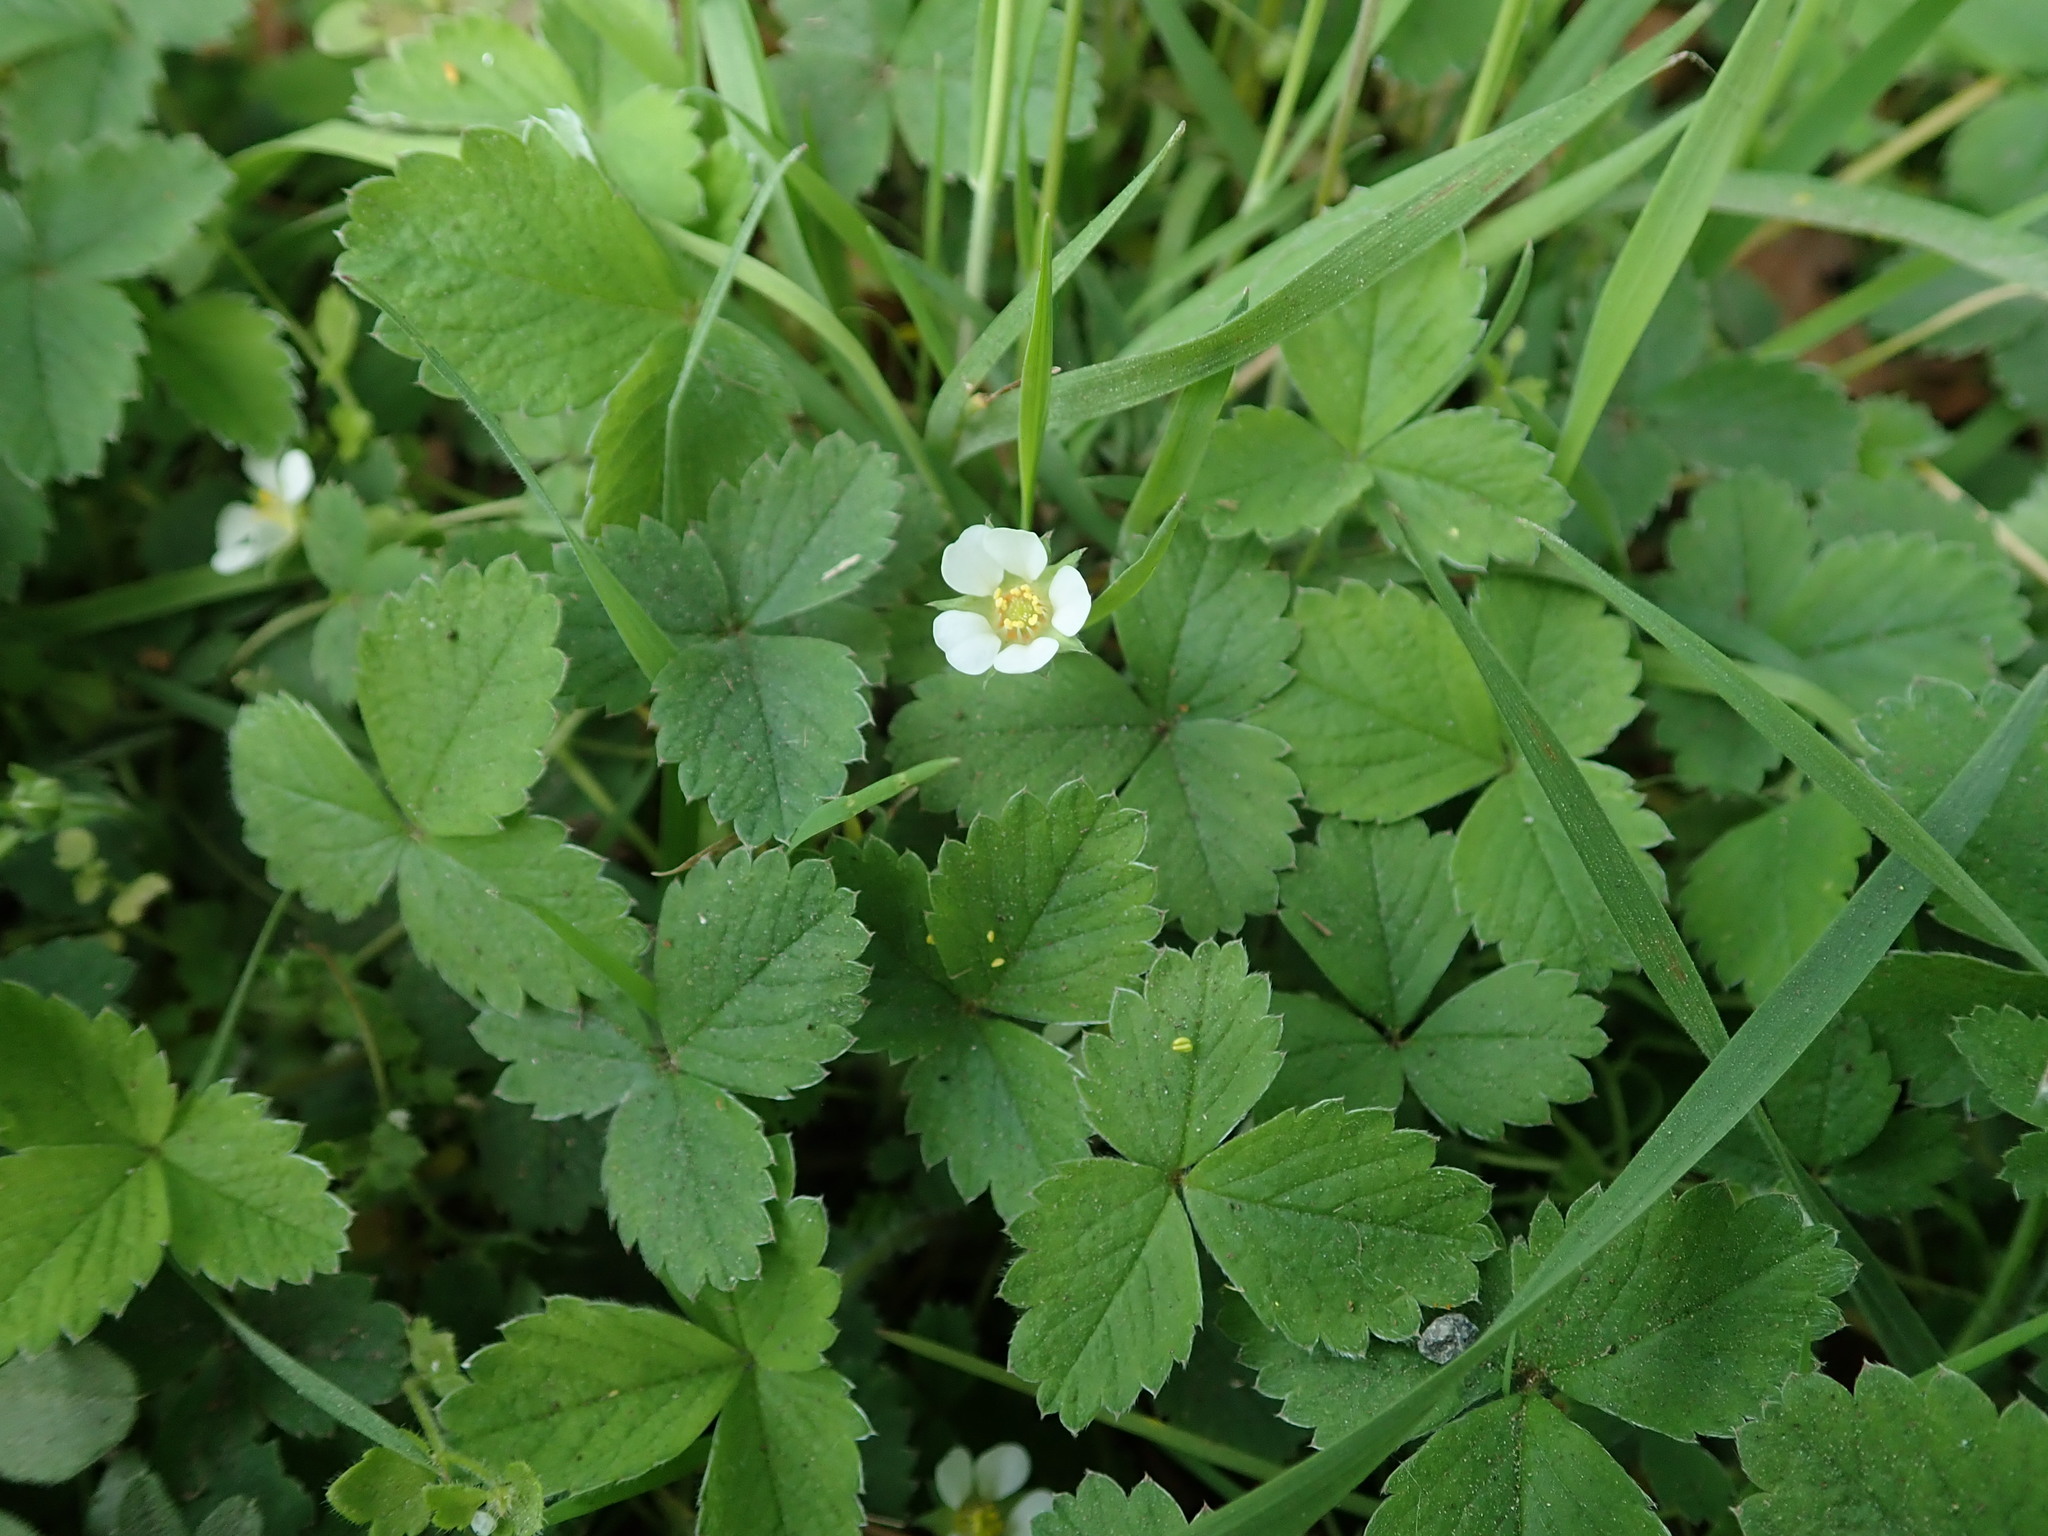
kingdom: Plantae
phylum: Tracheophyta
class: Magnoliopsida
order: Rosales
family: Rosaceae
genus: Potentilla
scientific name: Potentilla sterilis
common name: Barren strawberry
